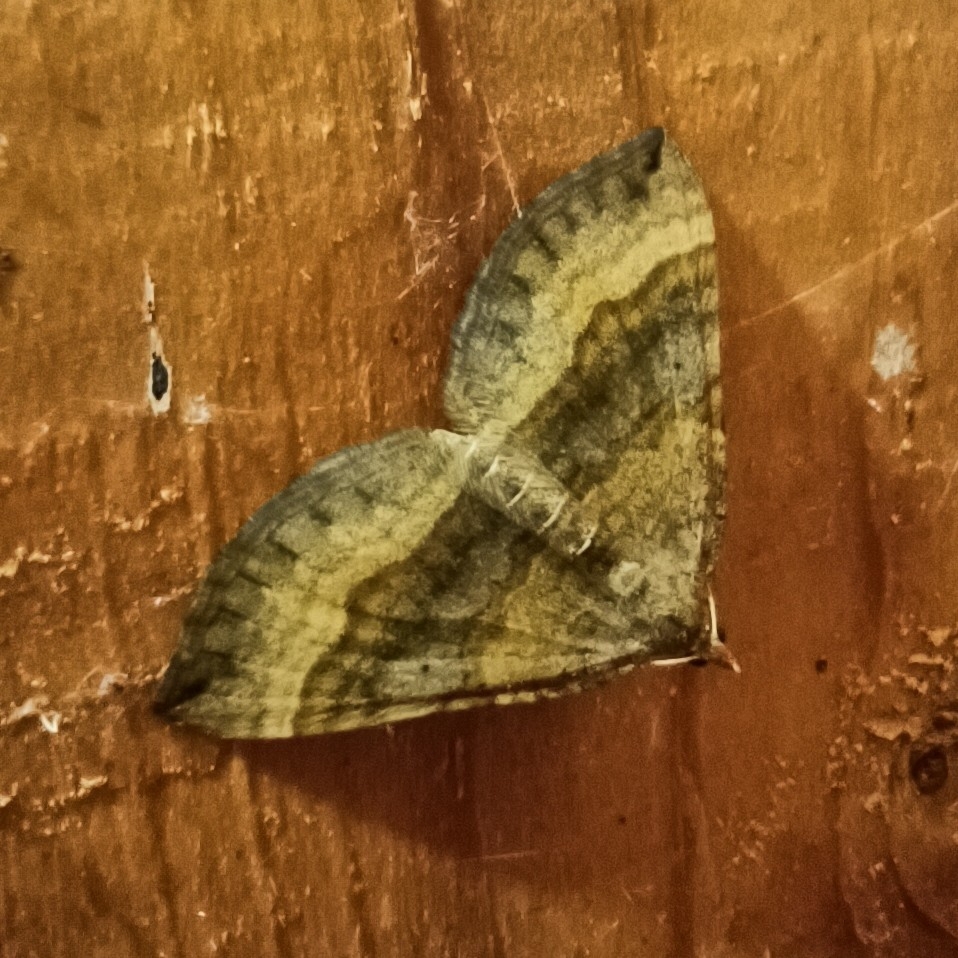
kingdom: Animalia
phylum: Arthropoda
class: Insecta
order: Lepidoptera
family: Geometridae
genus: Scotopteryx
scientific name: Scotopteryx chenopodiata
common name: Shaded broad-bar
